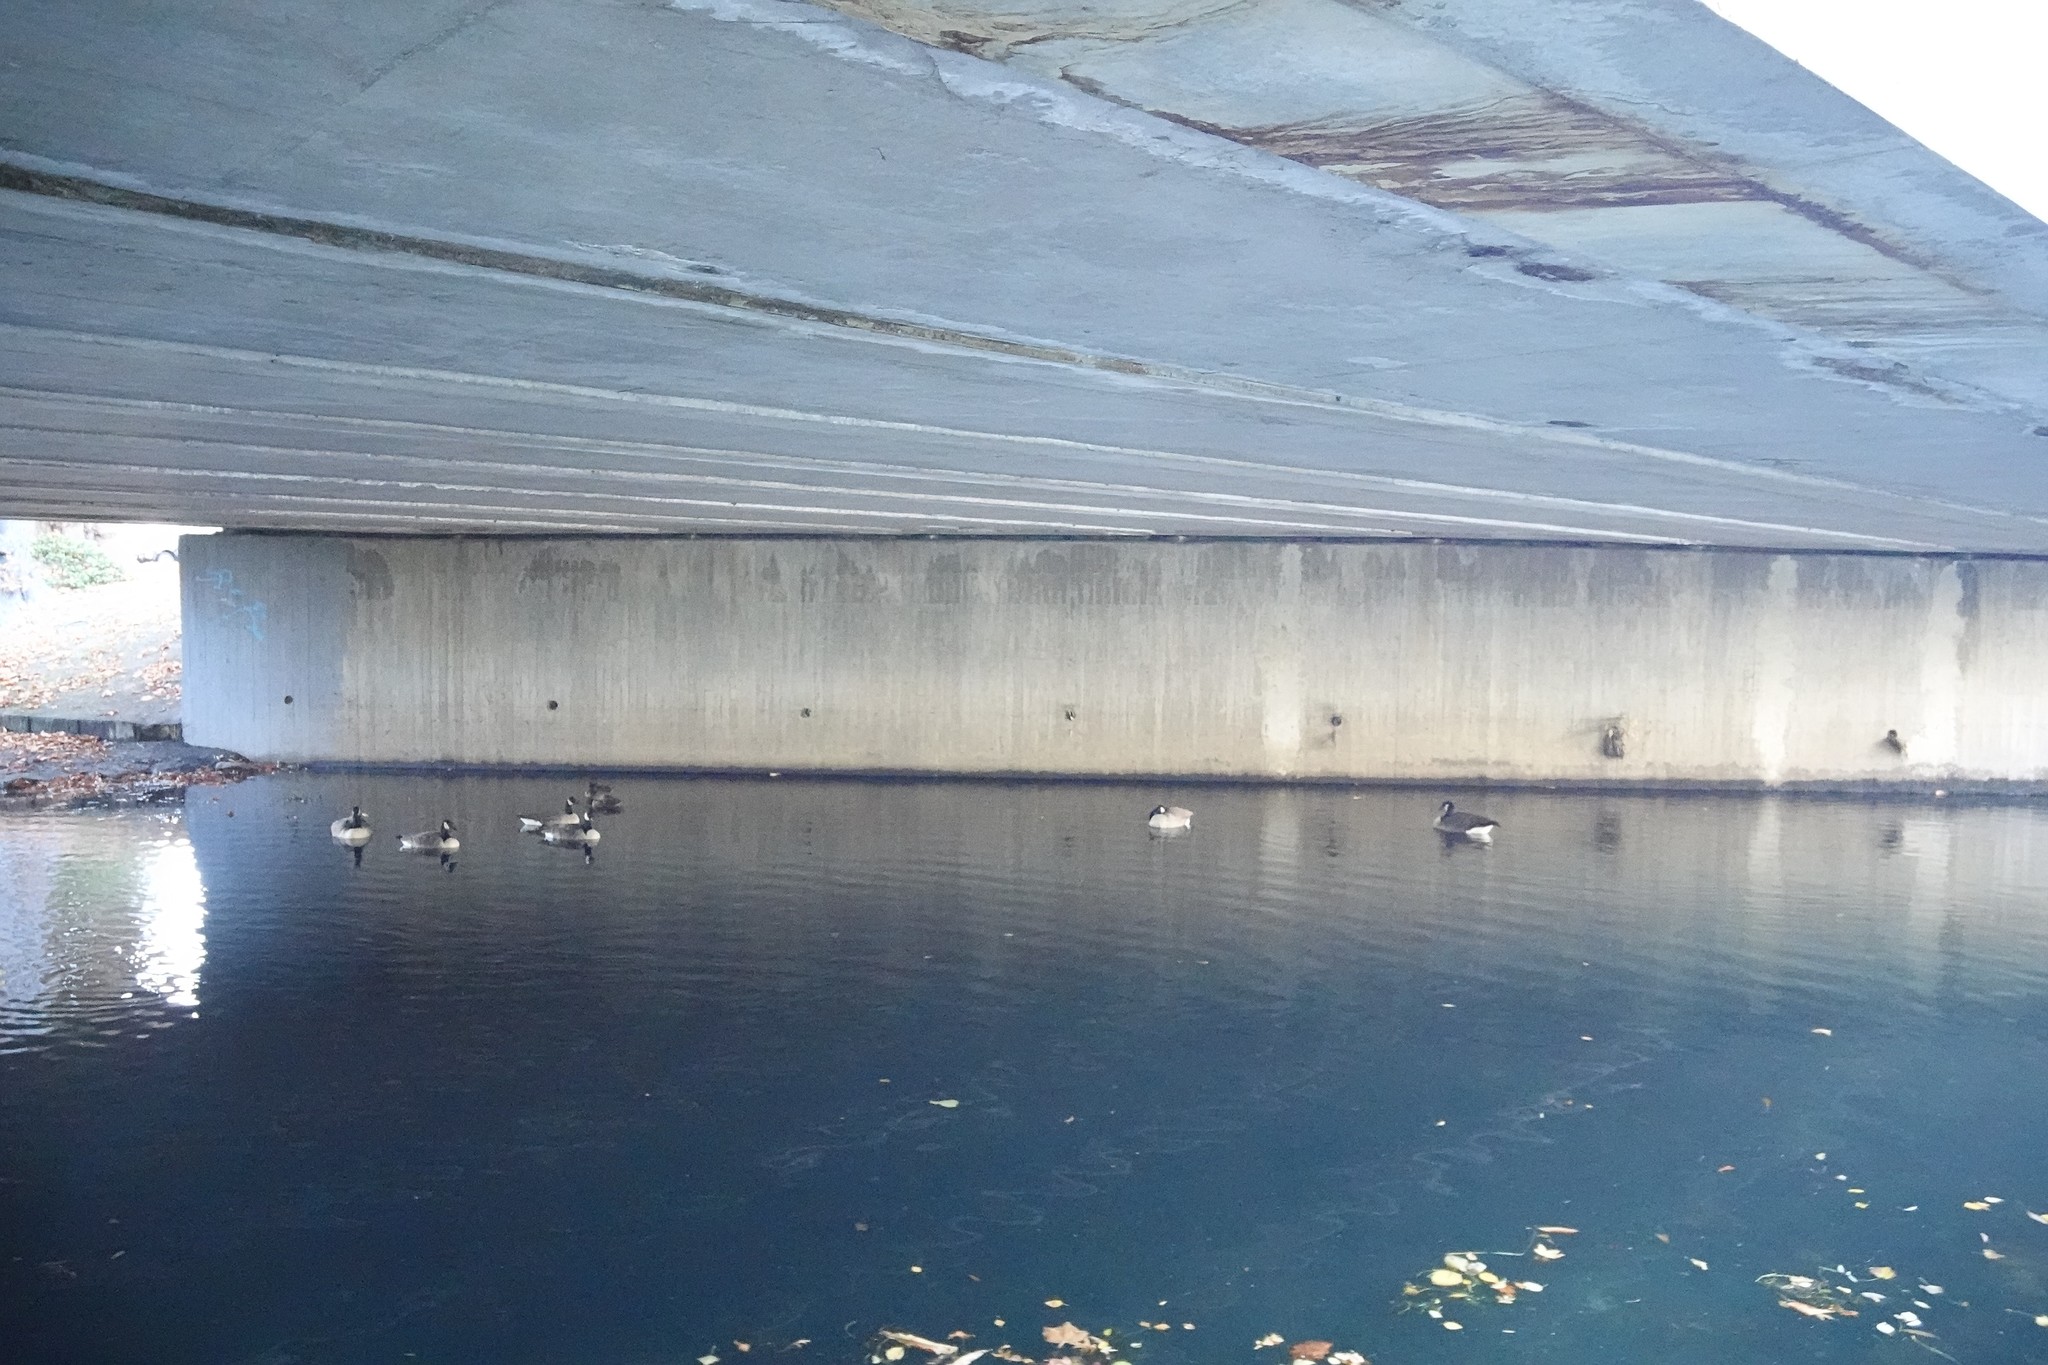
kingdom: Animalia
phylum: Chordata
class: Aves
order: Anseriformes
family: Anatidae
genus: Branta
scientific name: Branta canadensis
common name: Canada goose
